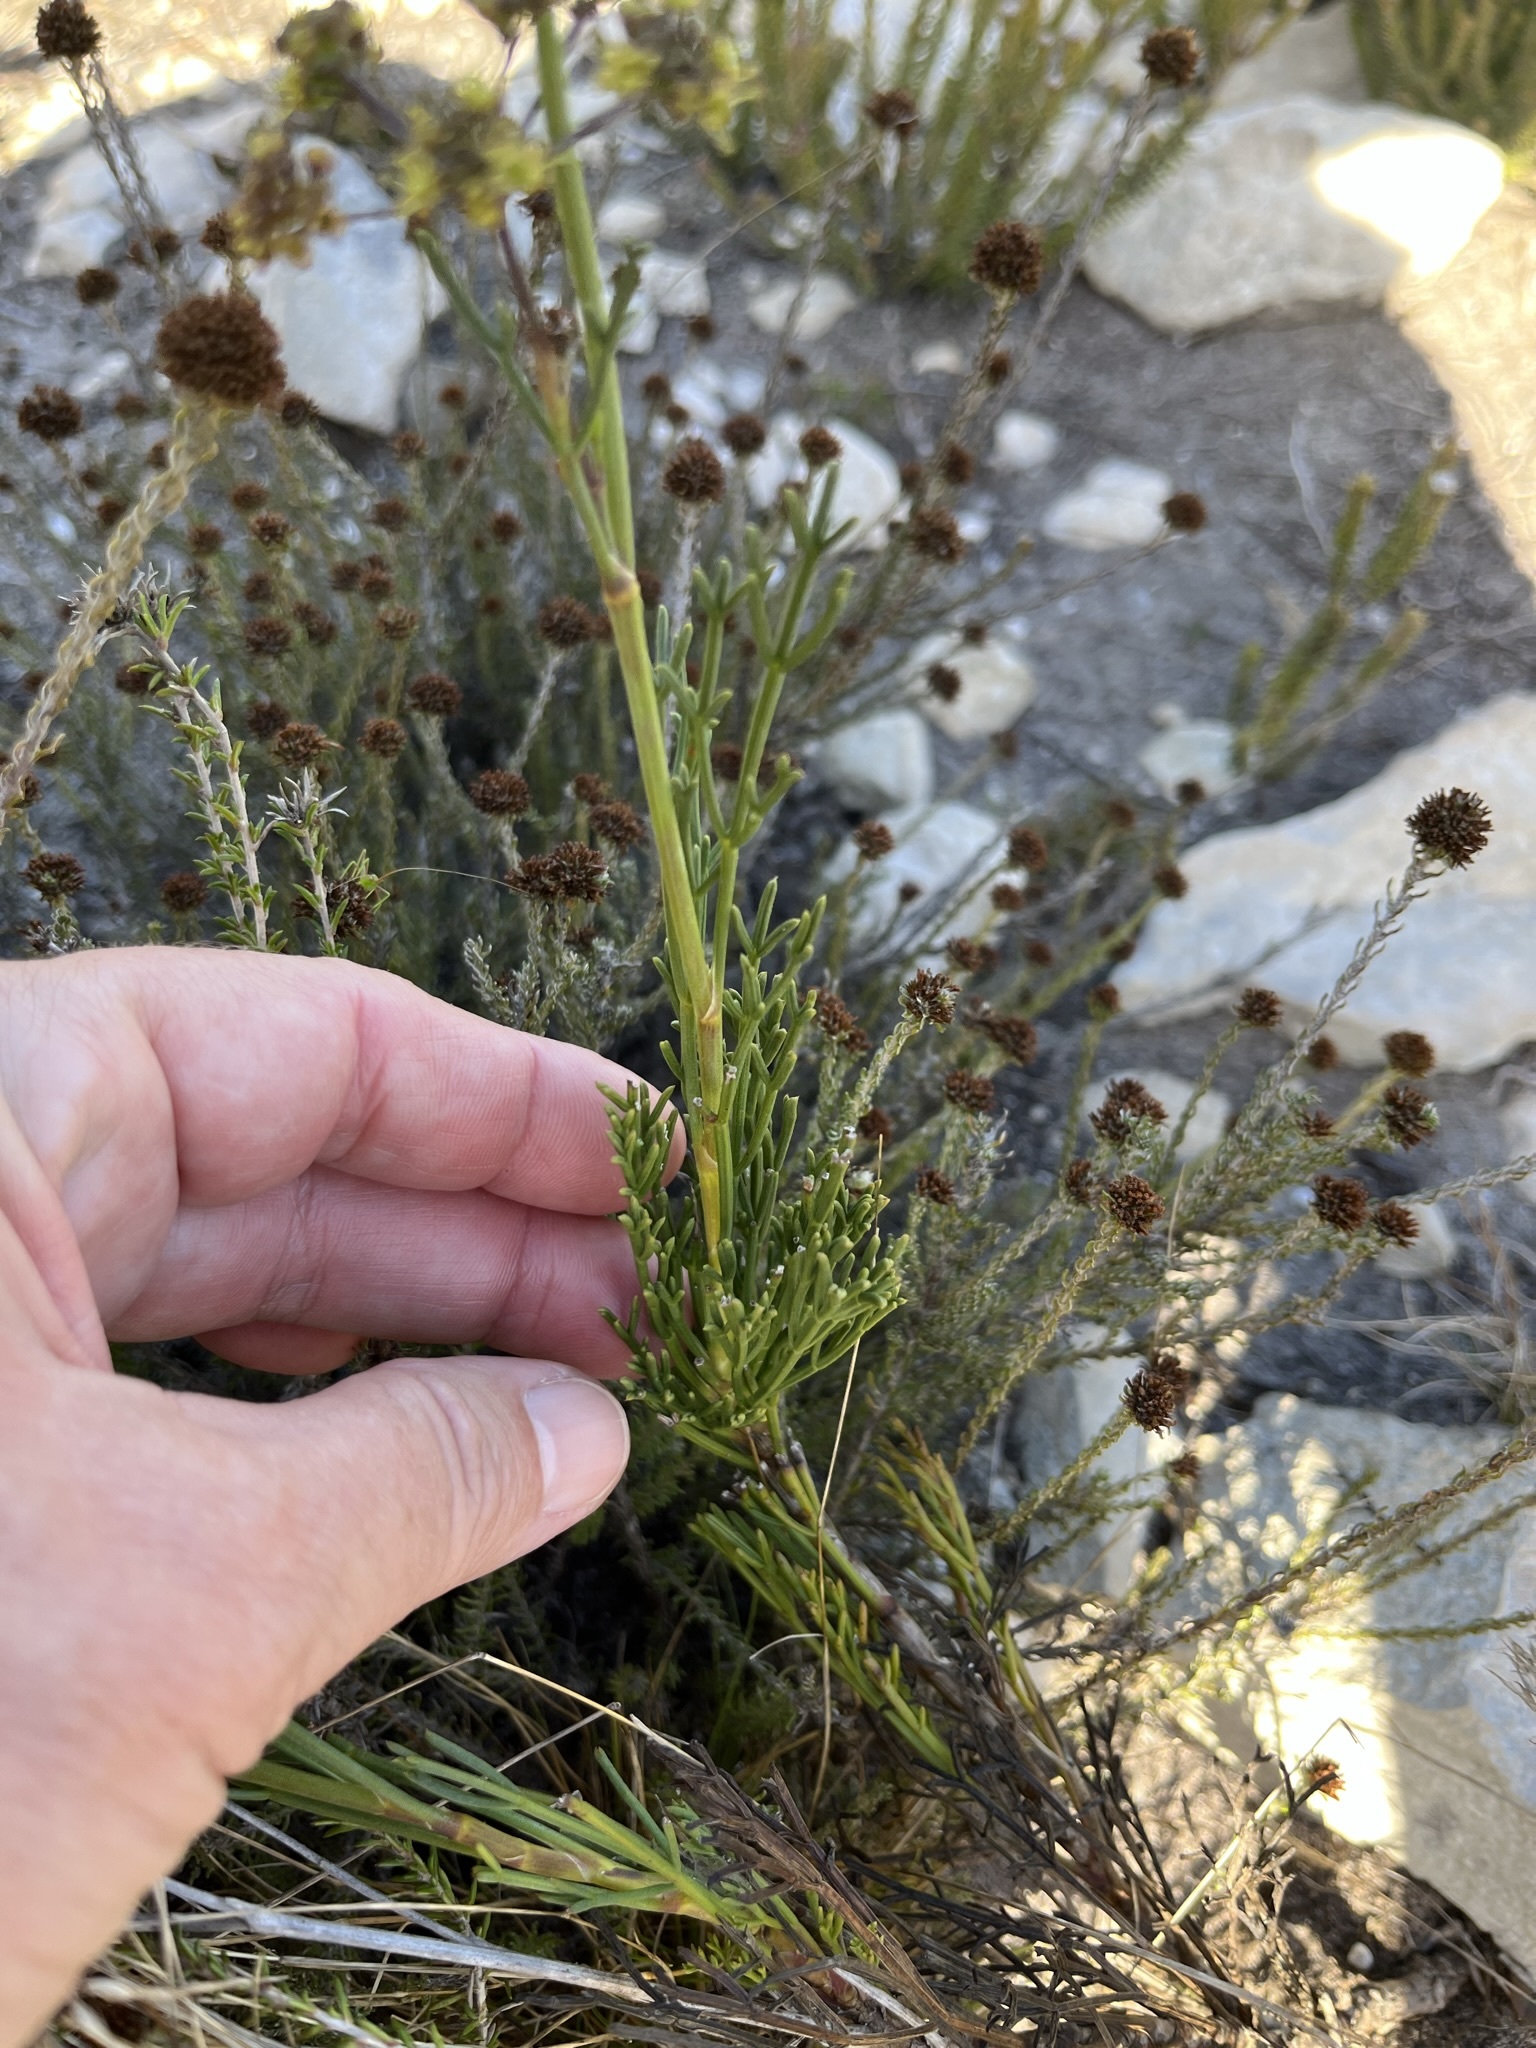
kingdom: Plantae
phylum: Tracheophyta
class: Magnoliopsida
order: Apiales
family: Apiaceae
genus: Anginon
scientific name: Anginon pumilum
